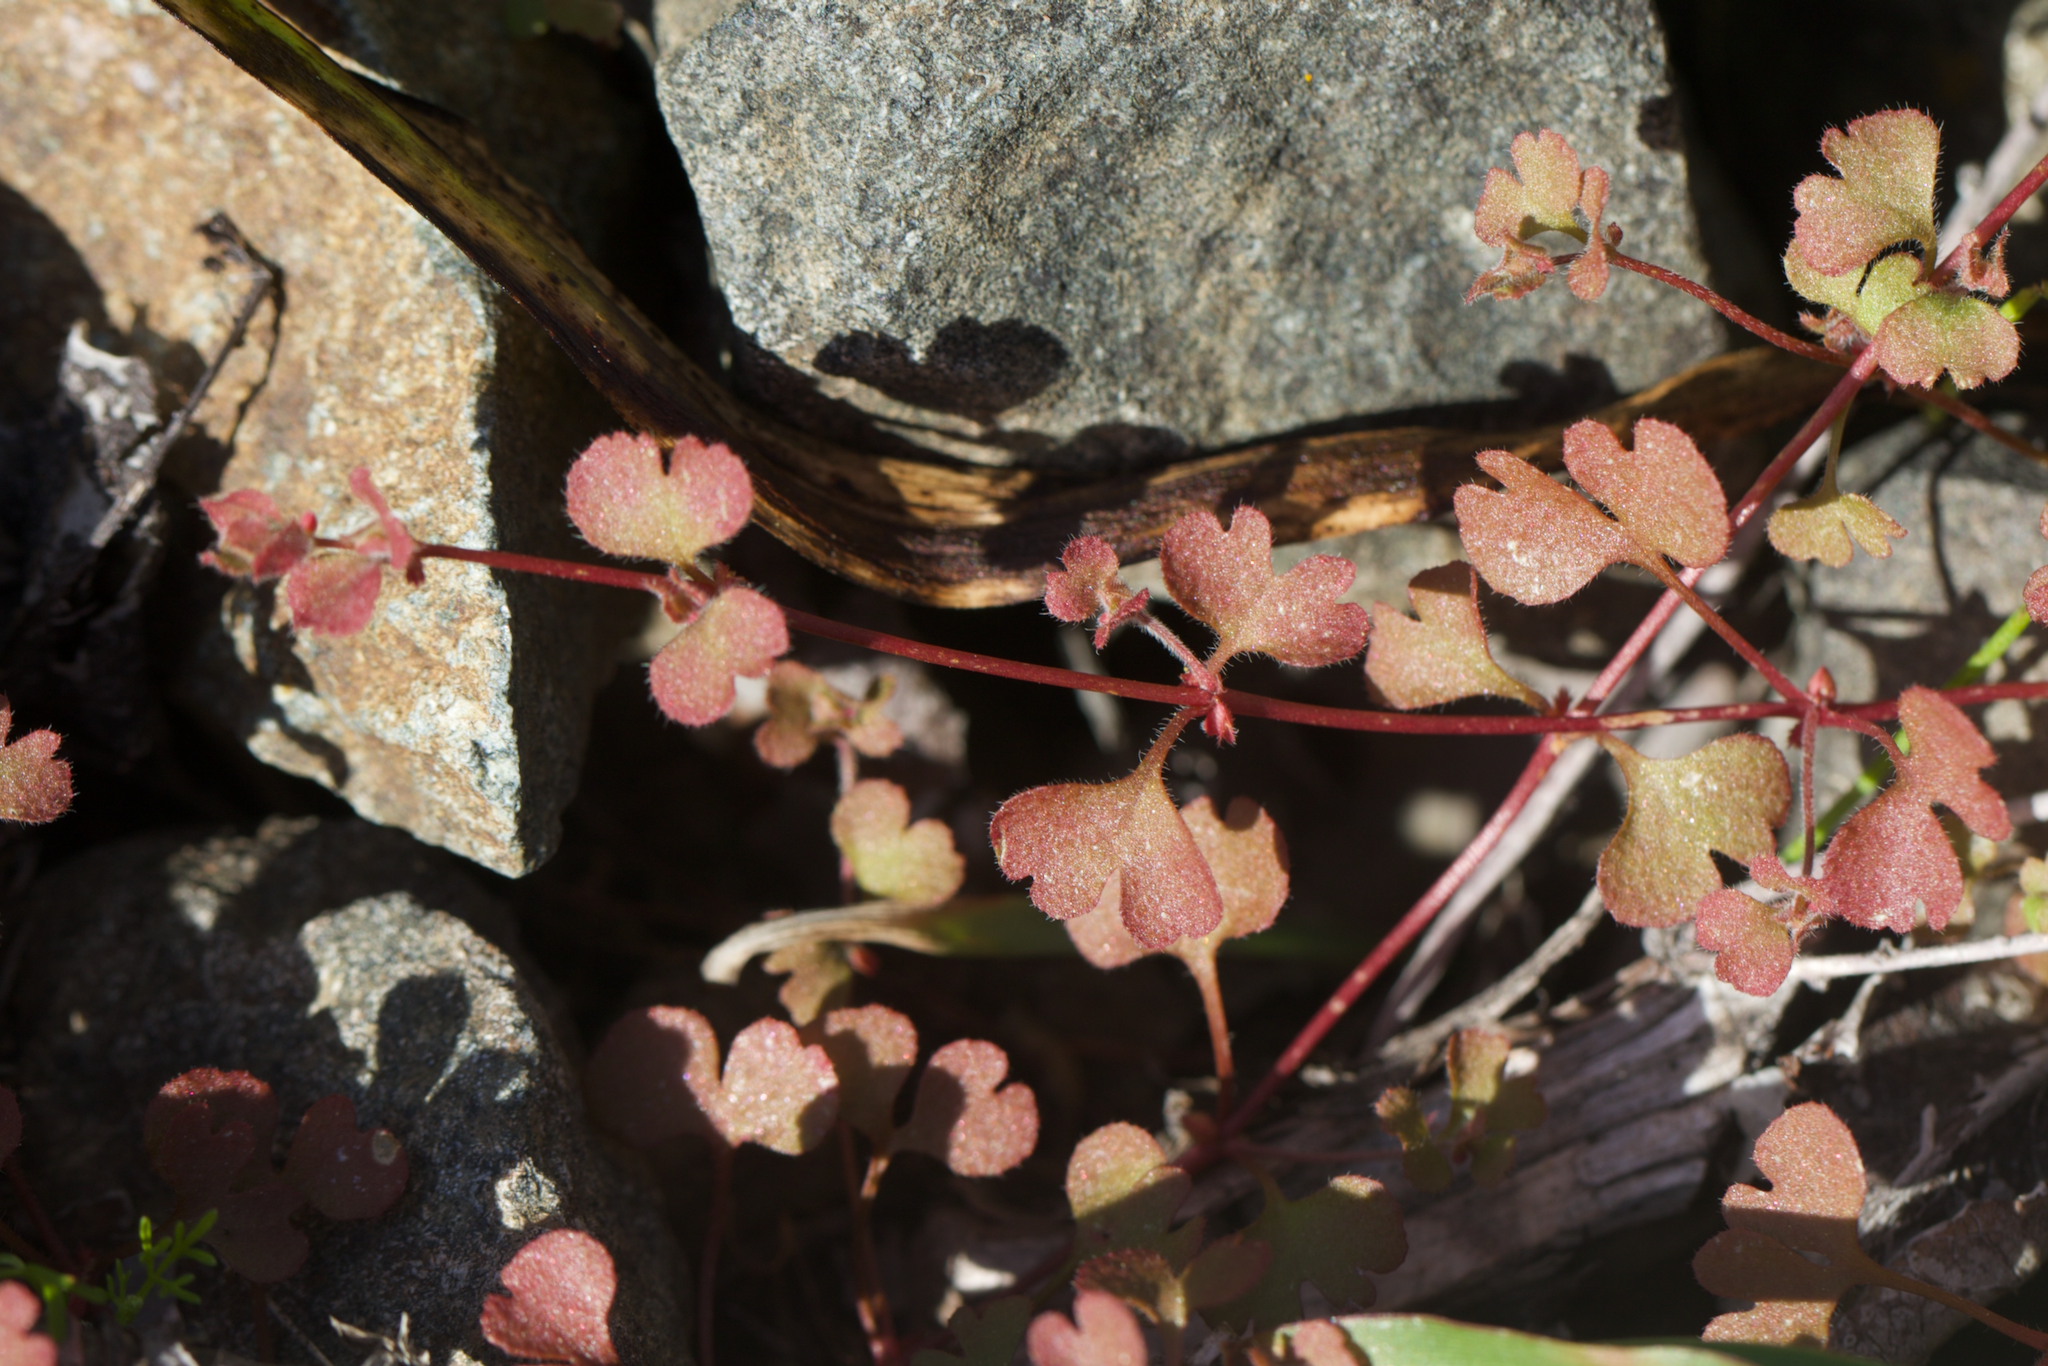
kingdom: Plantae
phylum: Tracheophyta
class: Magnoliopsida
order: Caryophyllales
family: Polygonaceae
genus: Pterostegia
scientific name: Pterostegia drymarioides
